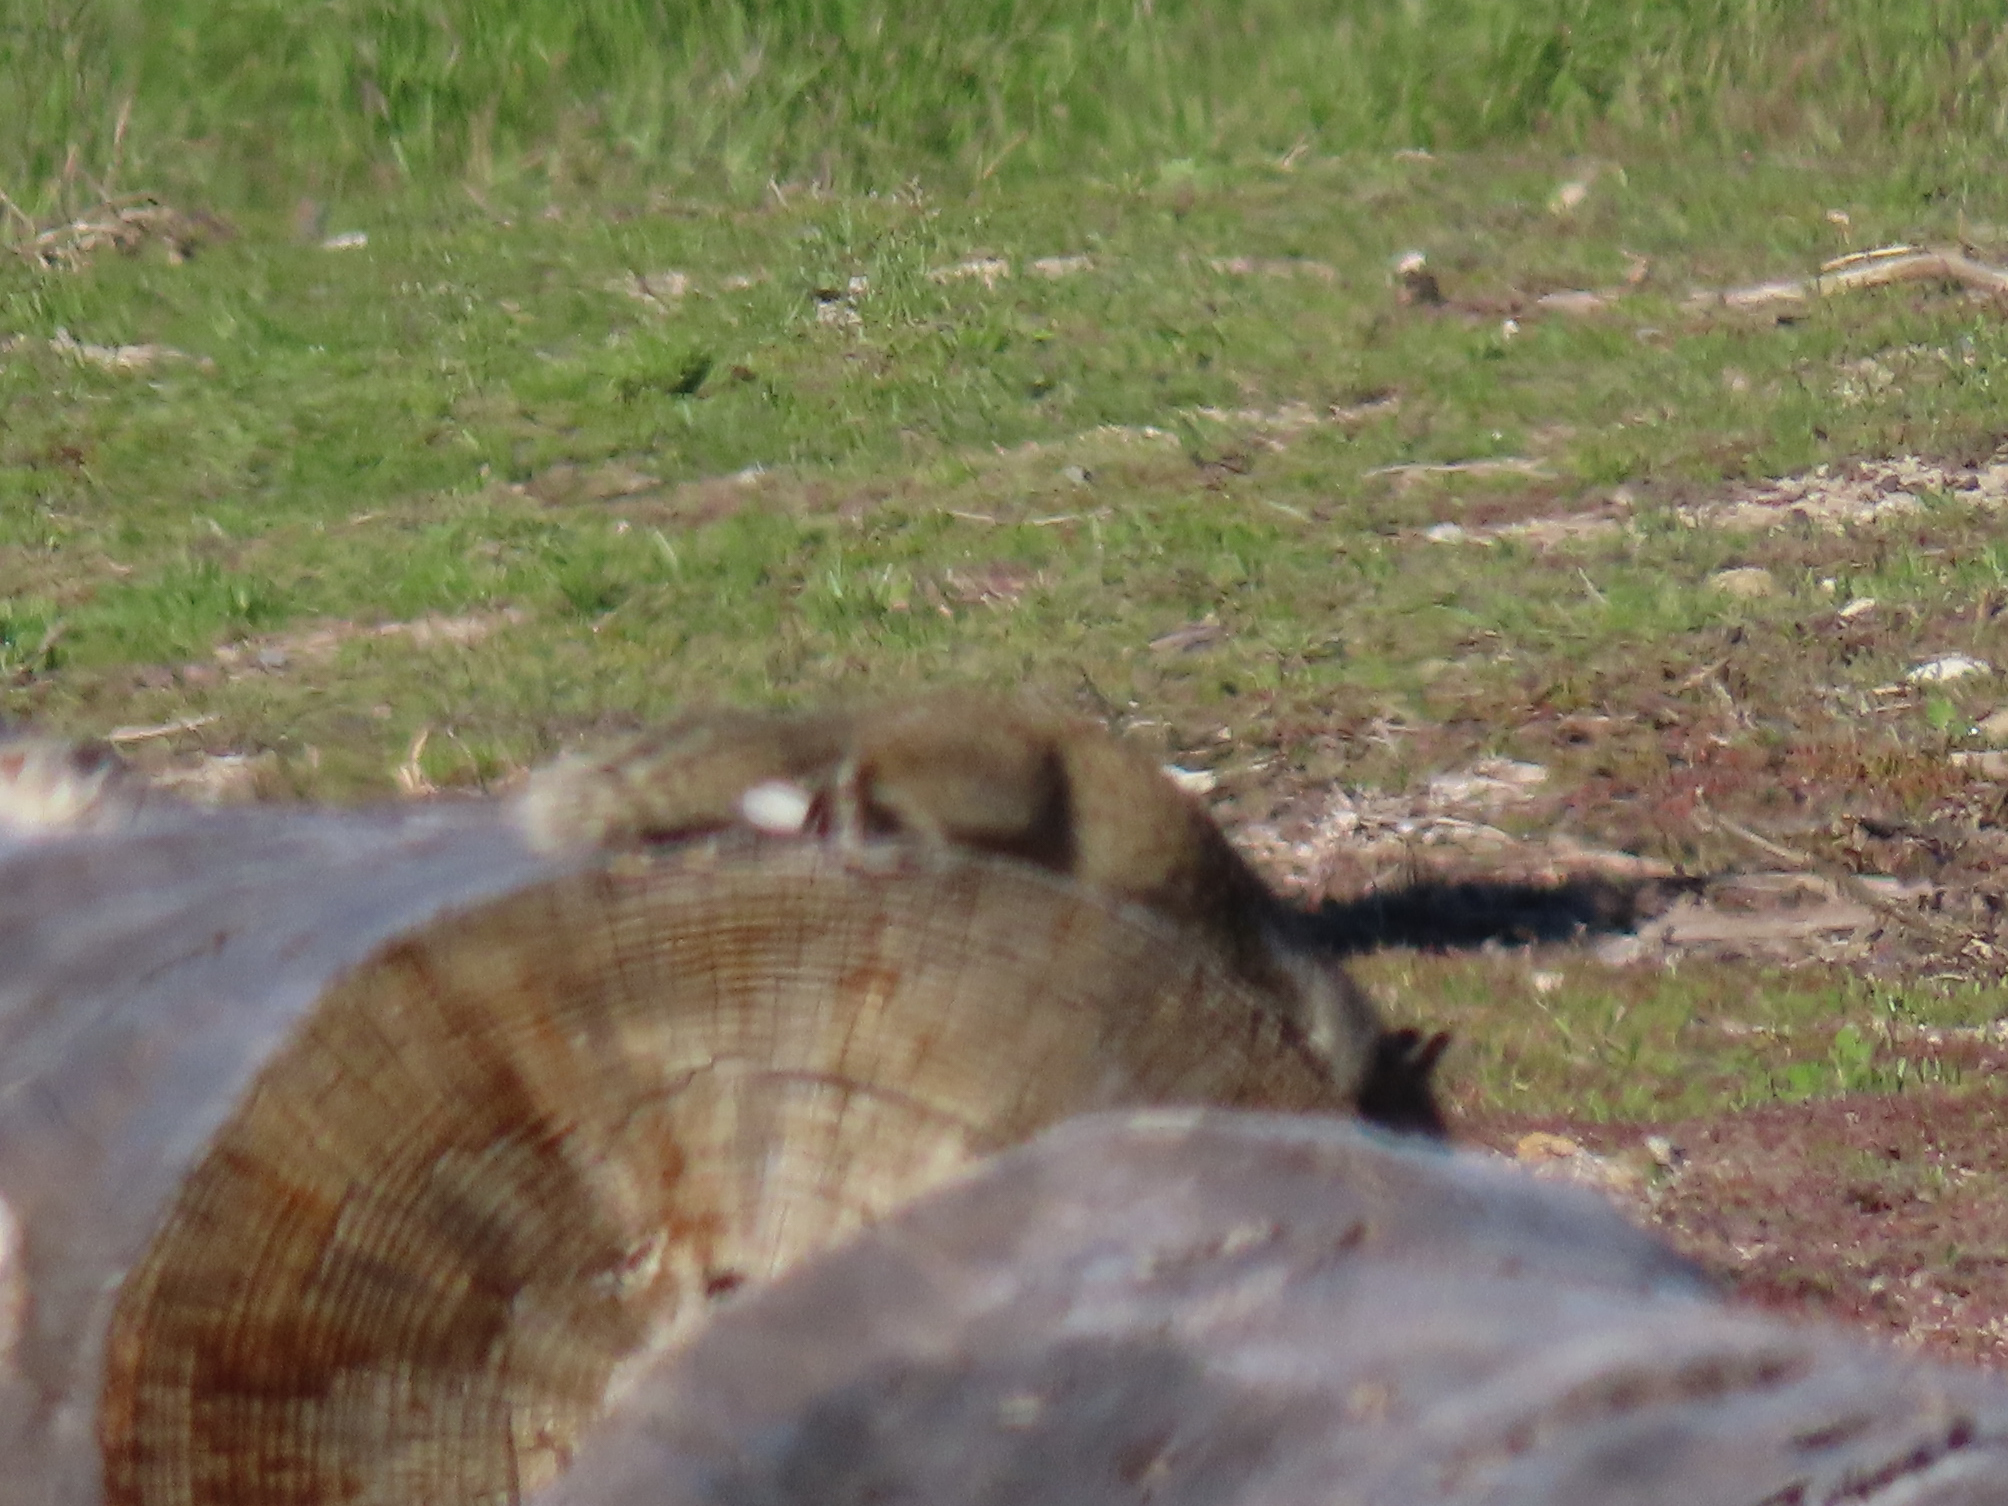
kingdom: Animalia
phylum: Chordata
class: Mammalia
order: Rodentia
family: Sciuridae
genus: Otospermophilus
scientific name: Otospermophilus beecheyi
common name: California ground squirrel
